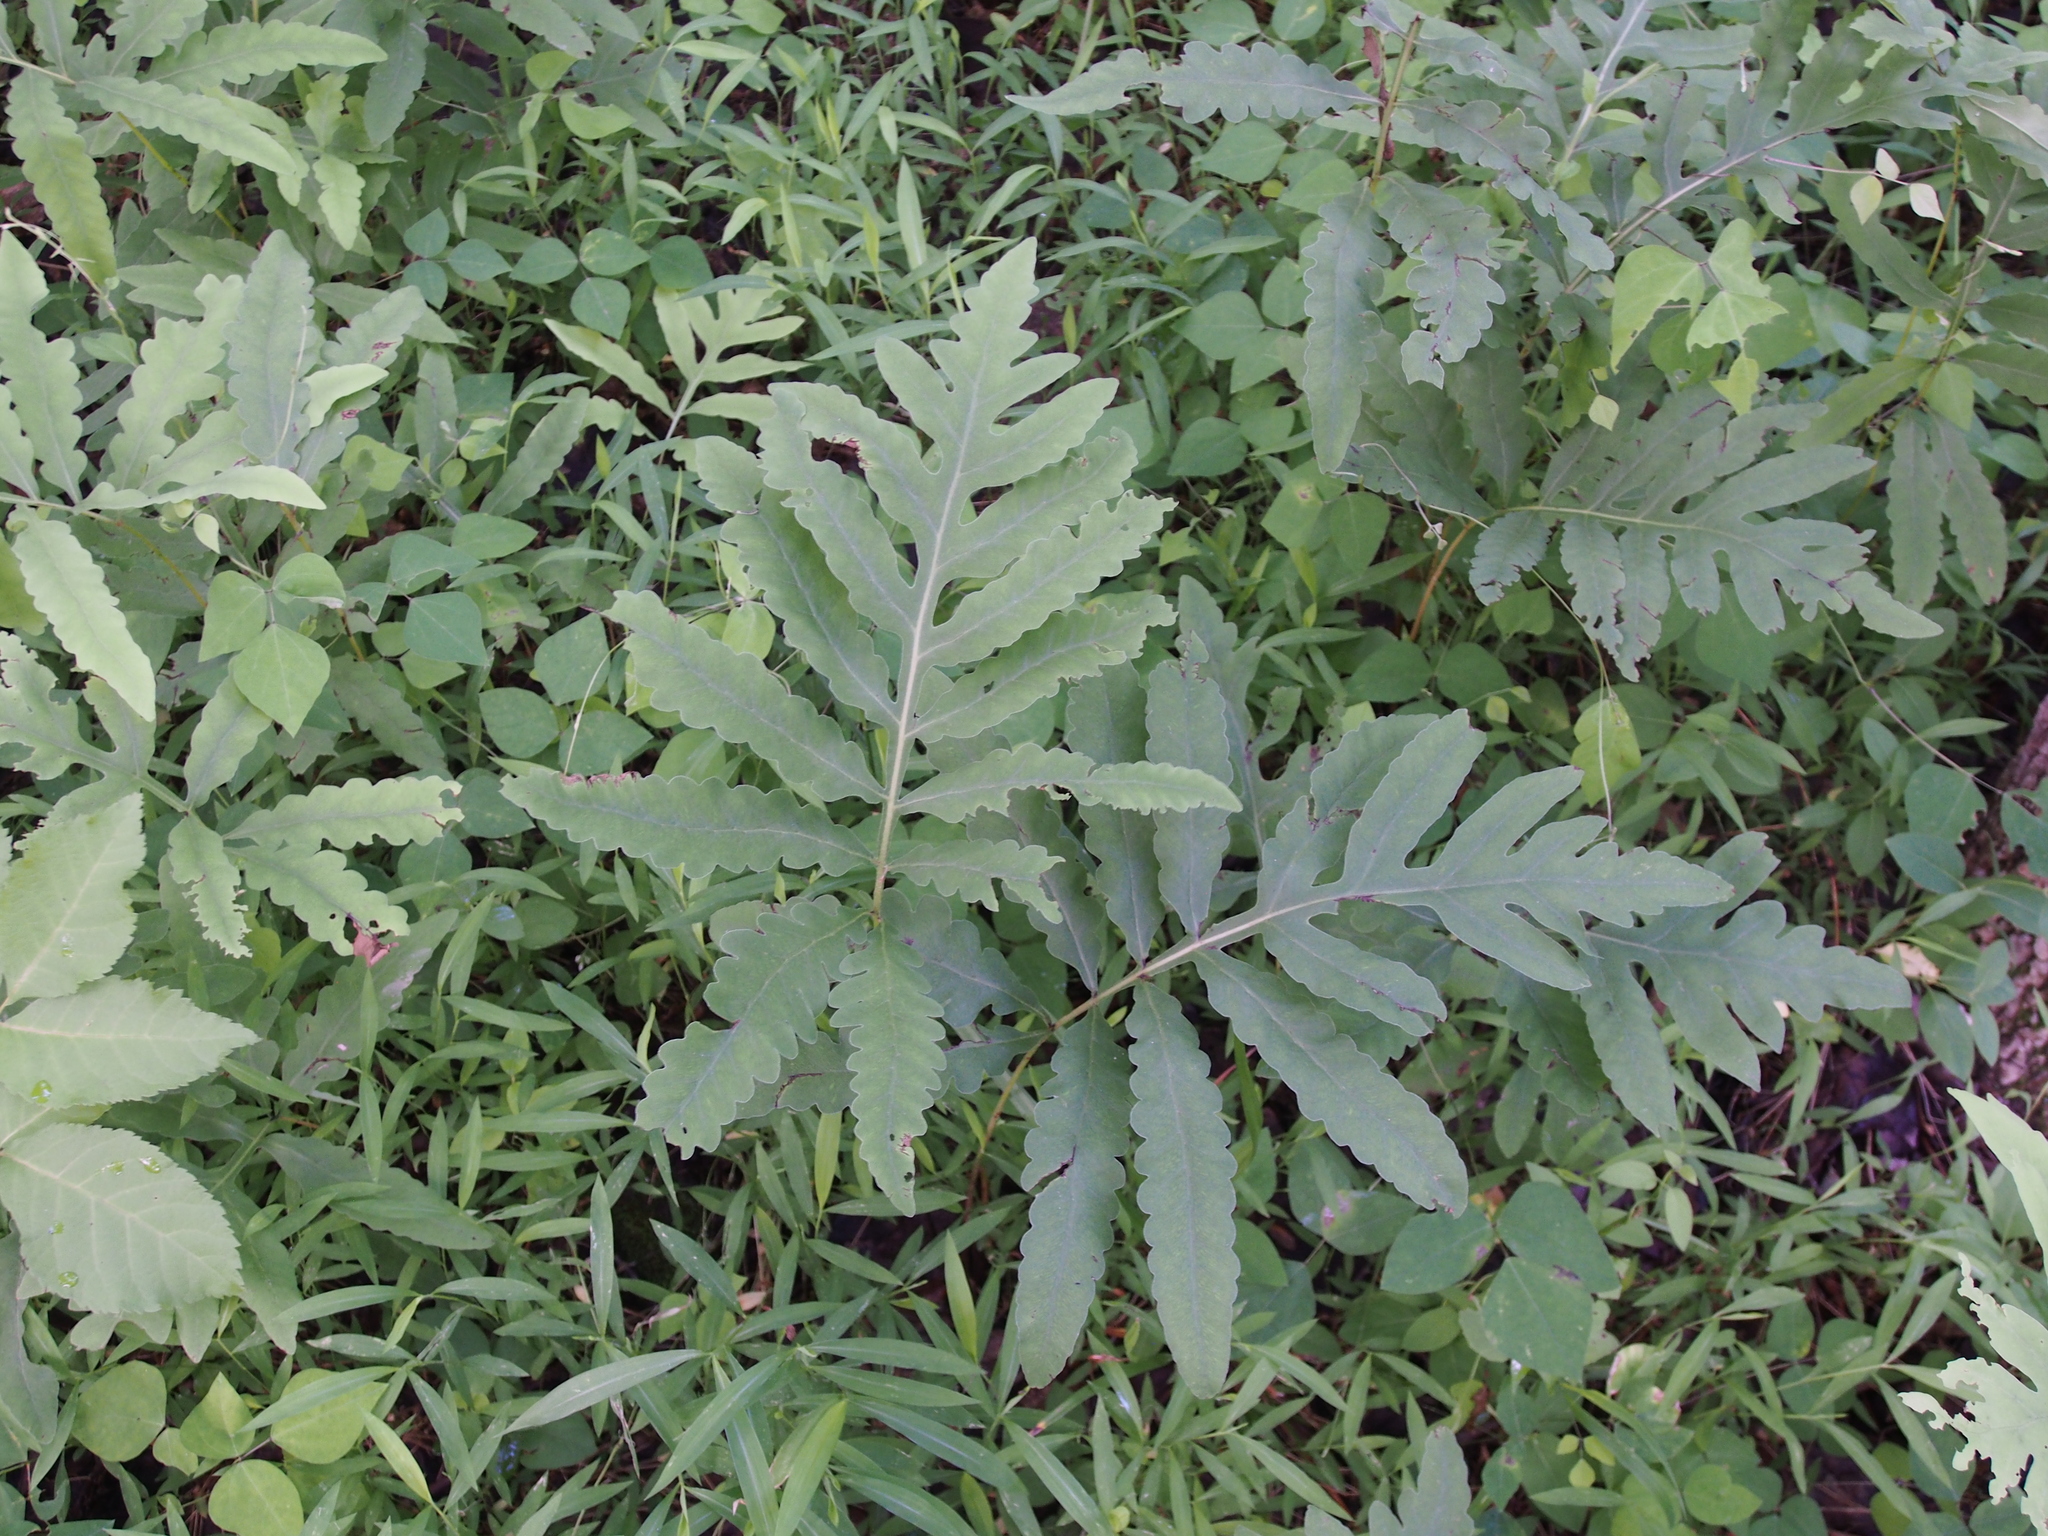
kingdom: Plantae
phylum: Tracheophyta
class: Polypodiopsida
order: Polypodiales
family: Onocleaceae
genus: Onoclea
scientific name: Onoclea sensibilis
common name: Sensitive fern
